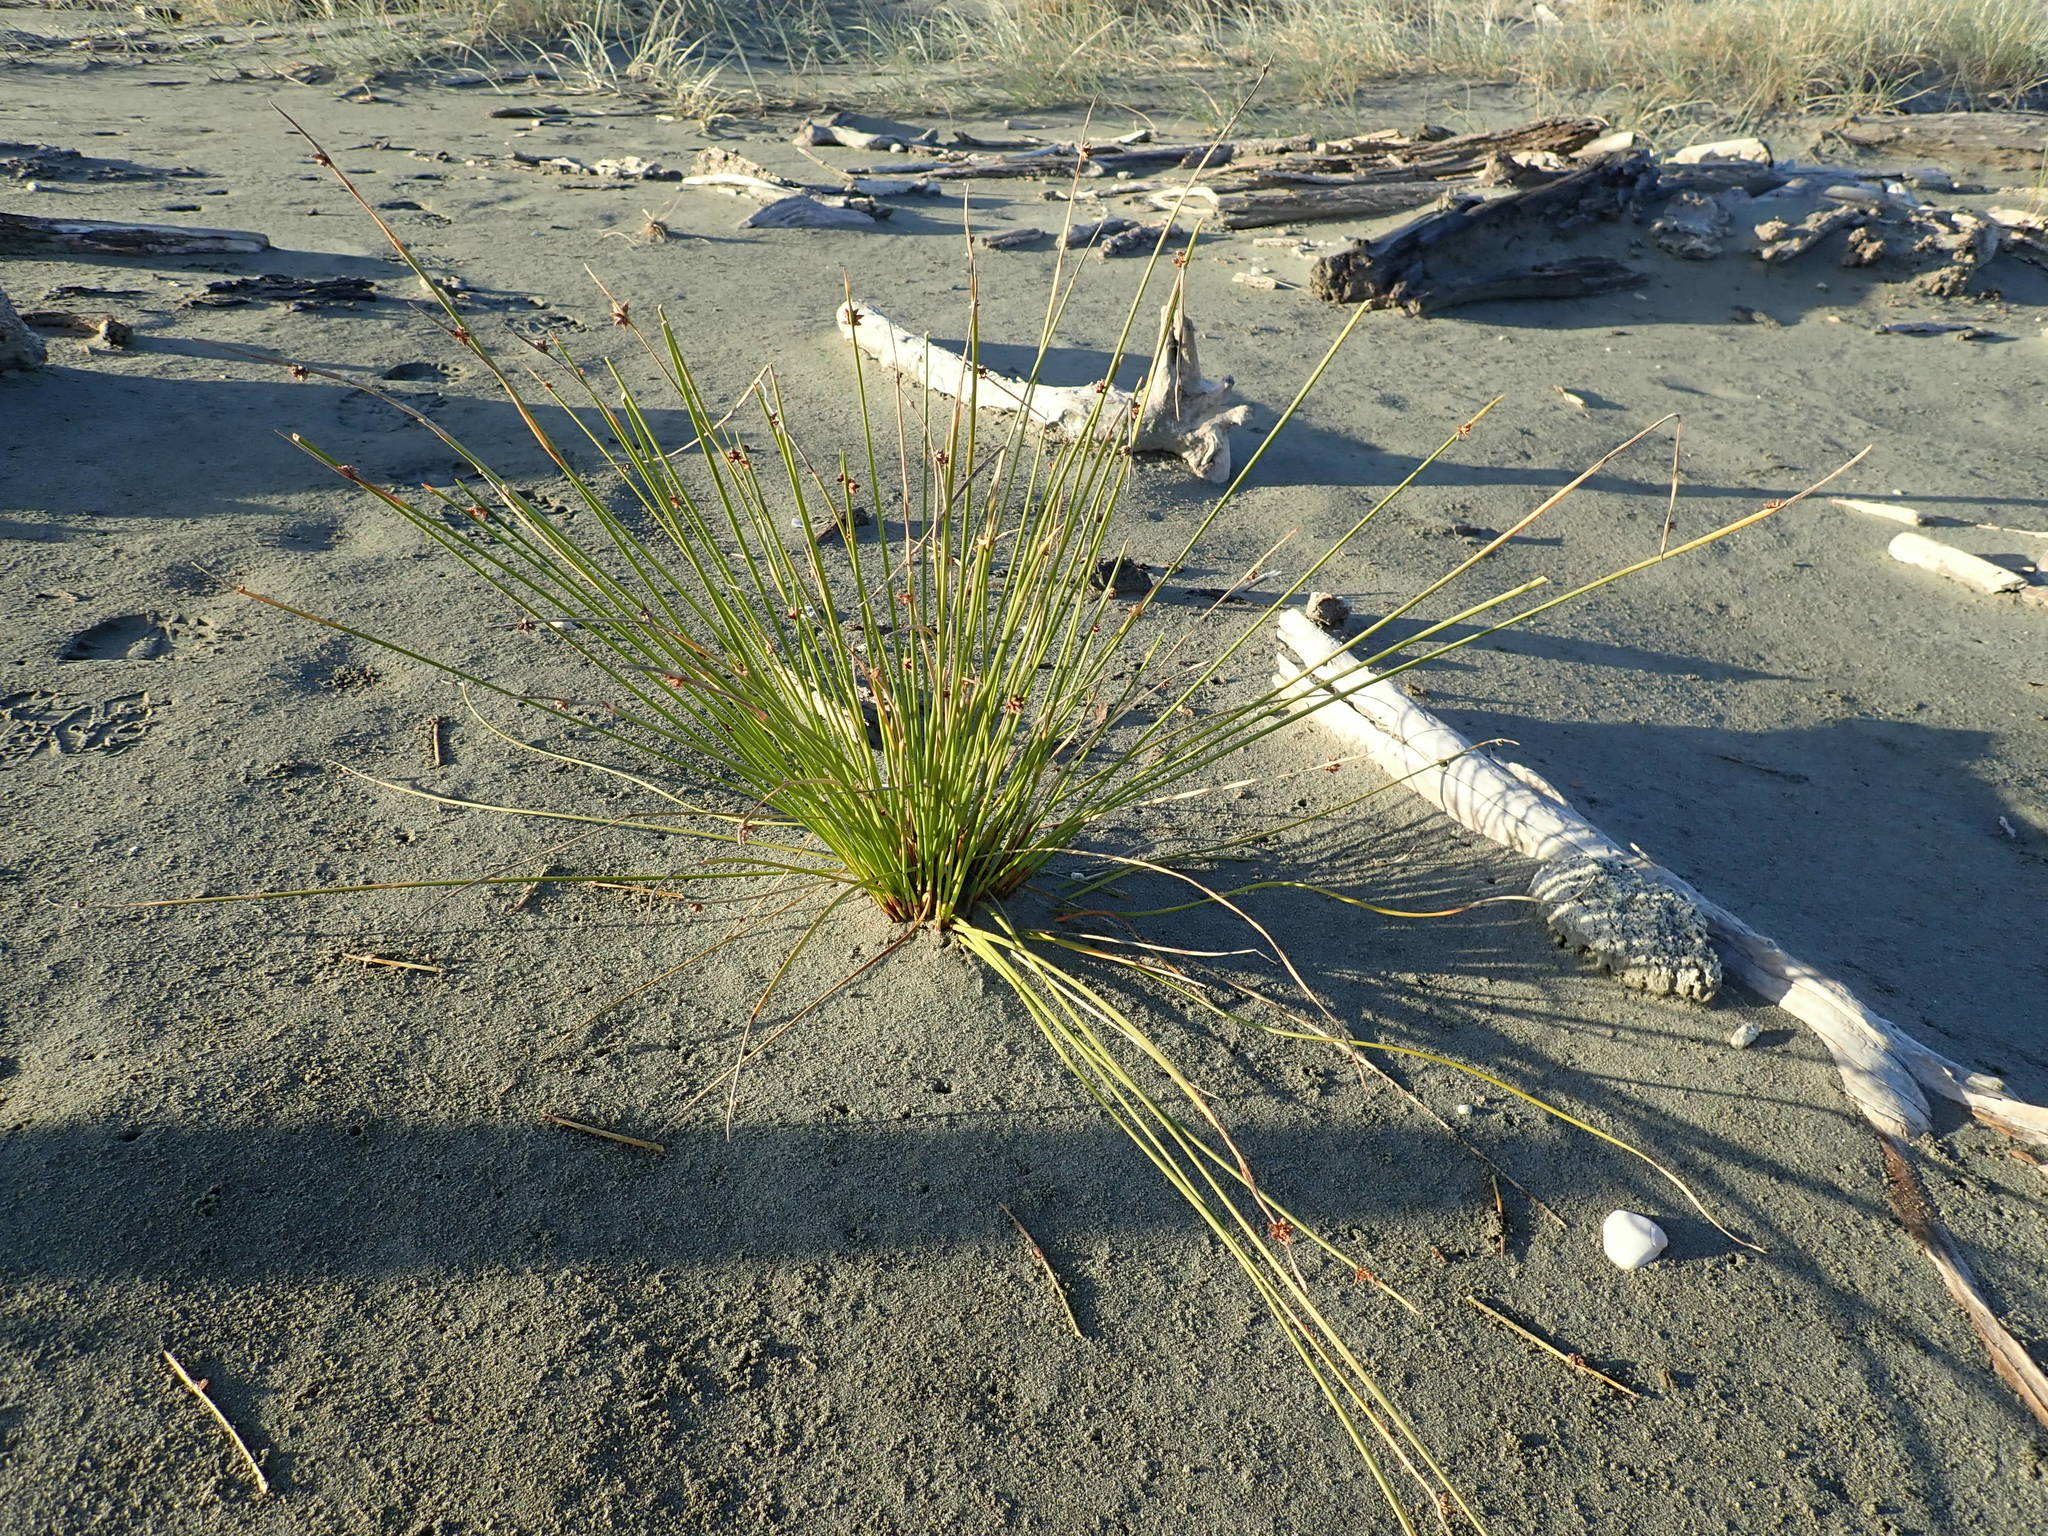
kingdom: Plantae
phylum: Tracheophyta
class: Liliopsida
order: Poales
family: Cyperaceae
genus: Ficinia
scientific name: Ficinia nodosa
